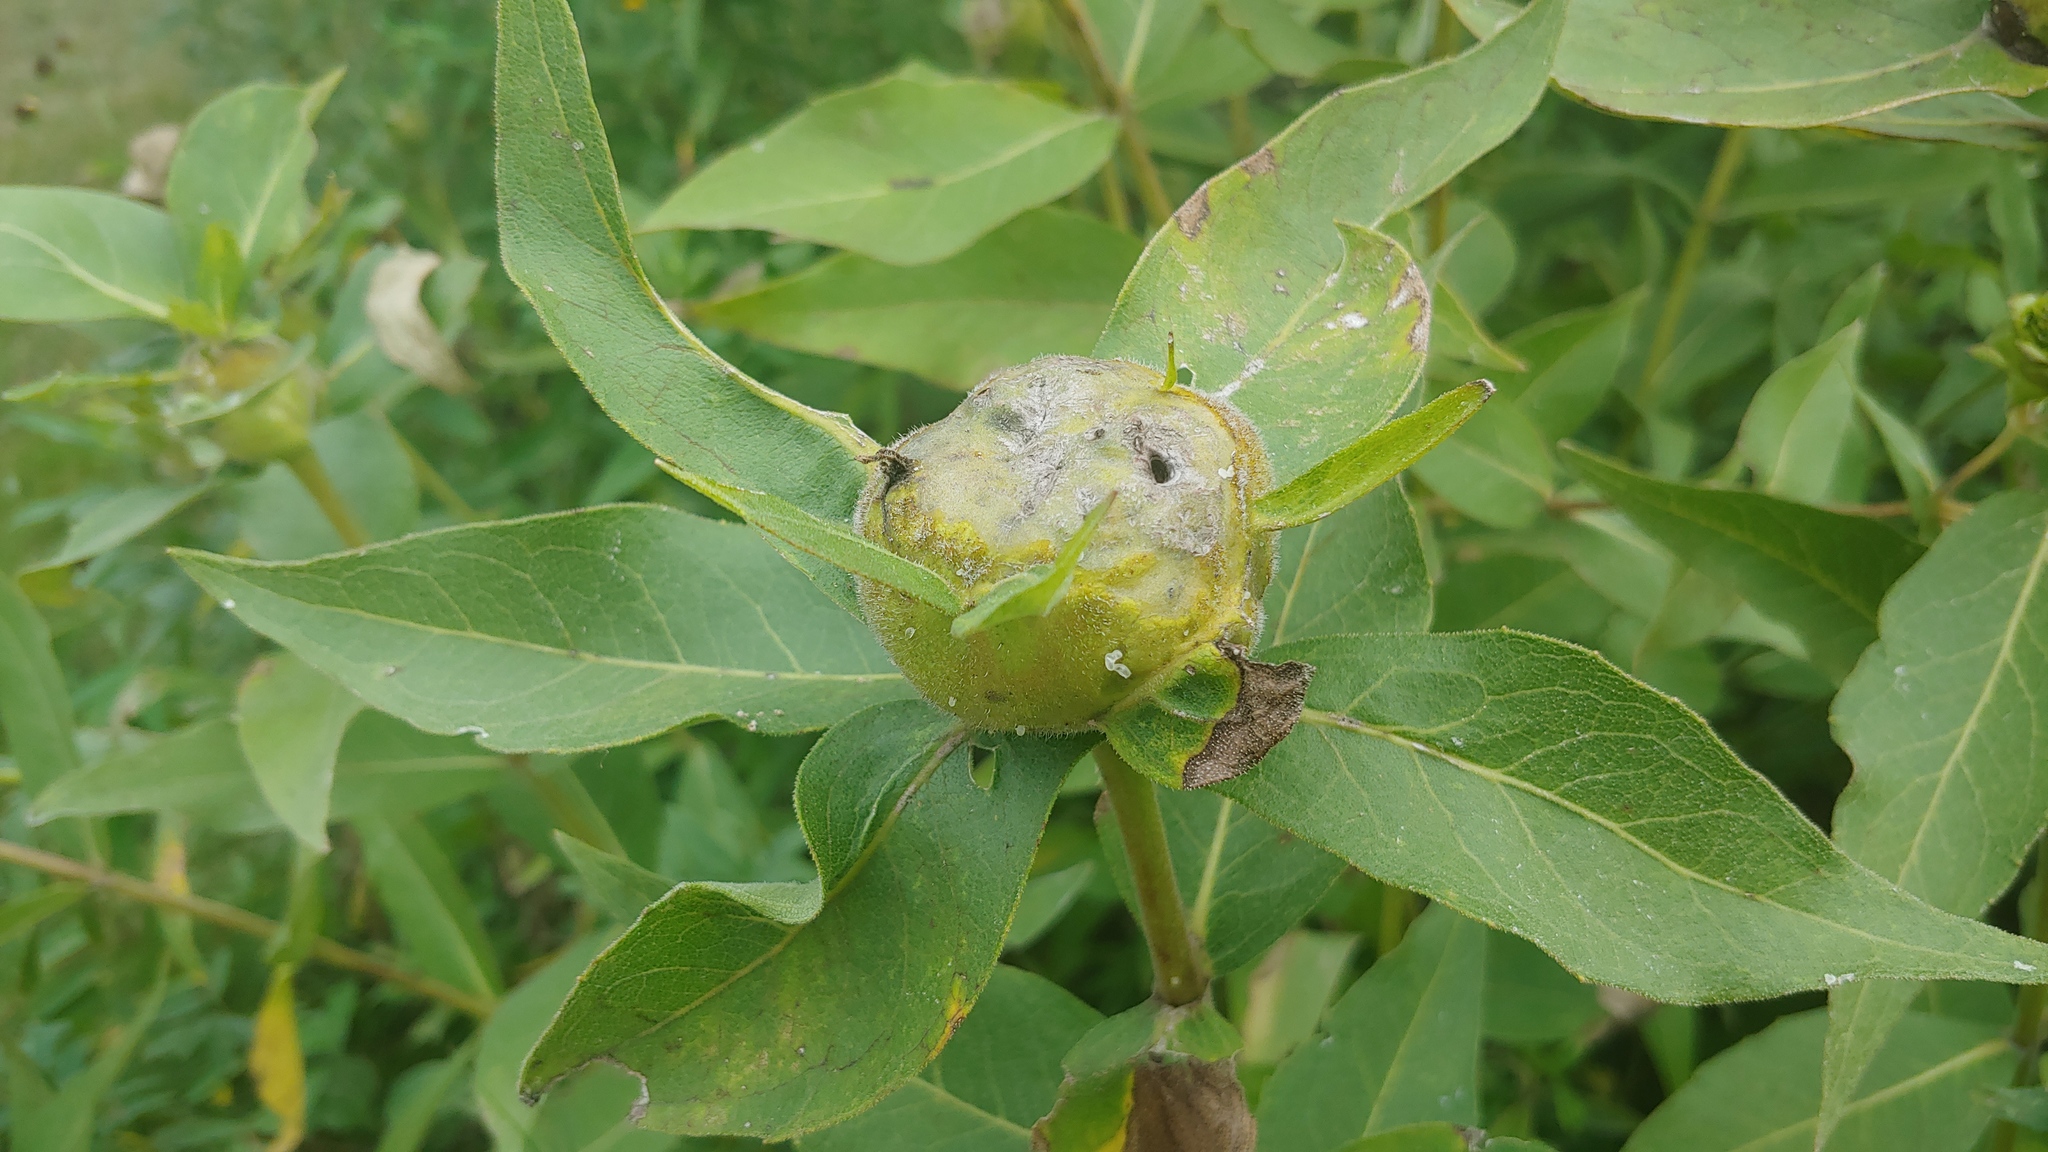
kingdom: Animalia
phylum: Arthropoda
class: Insecta
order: Hymenoptera
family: Cynipidae
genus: Antistrophus
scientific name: Antistrophus silphii
